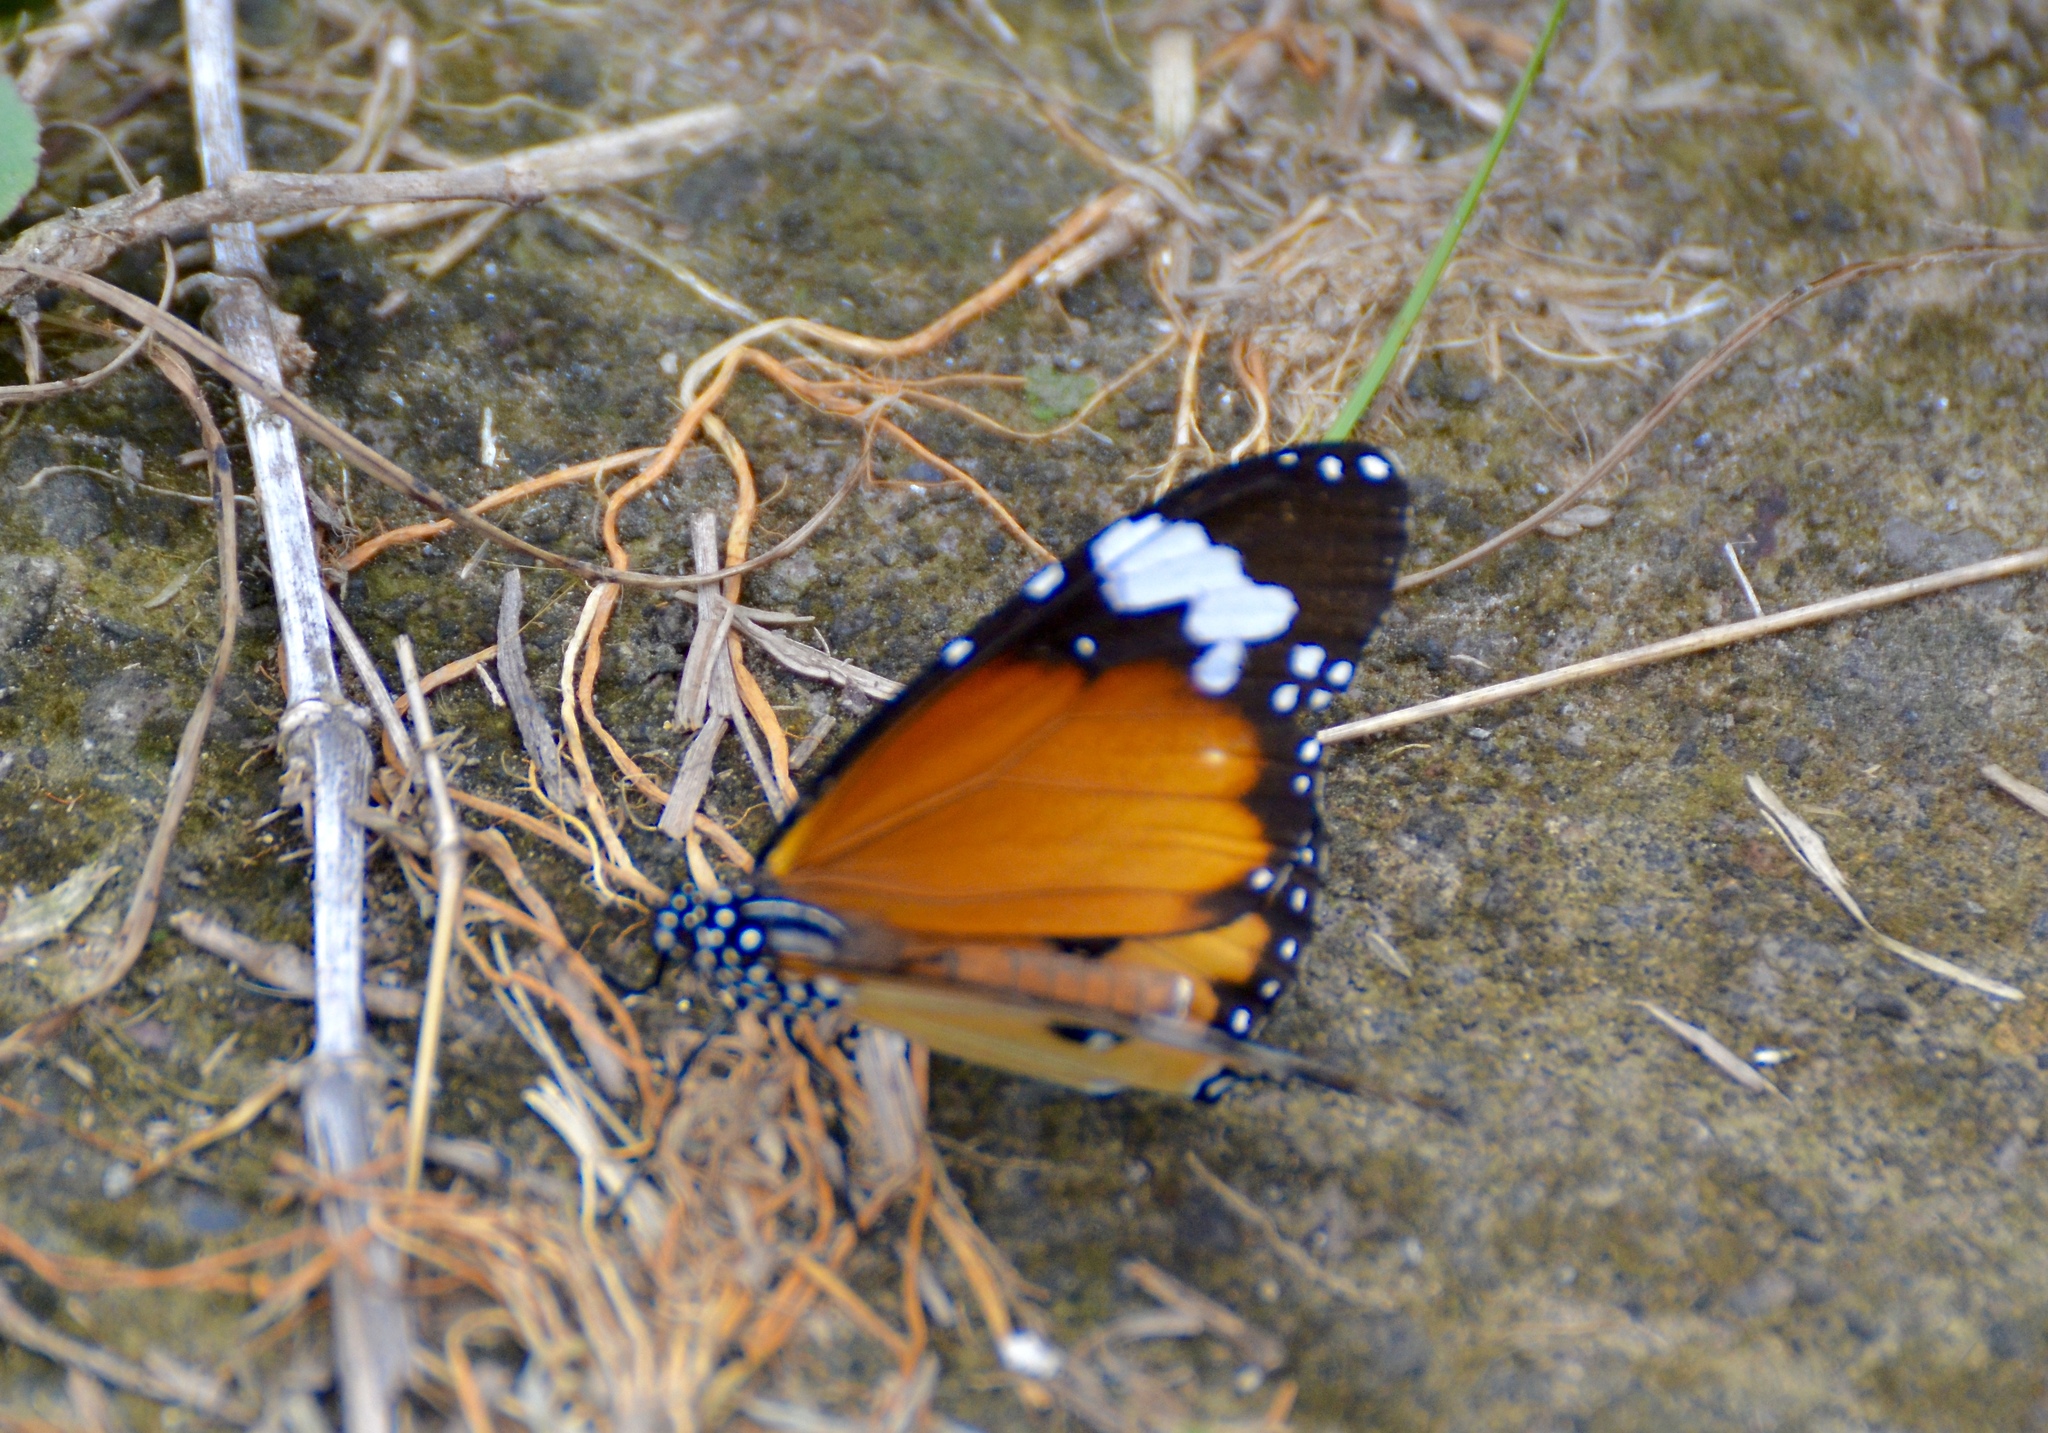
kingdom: Animalia
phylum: Arthropoda
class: Insecta
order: Lepidoptera
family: Nymphalidae
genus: Danaus
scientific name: Danaus chrysippus
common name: Plain tiger
